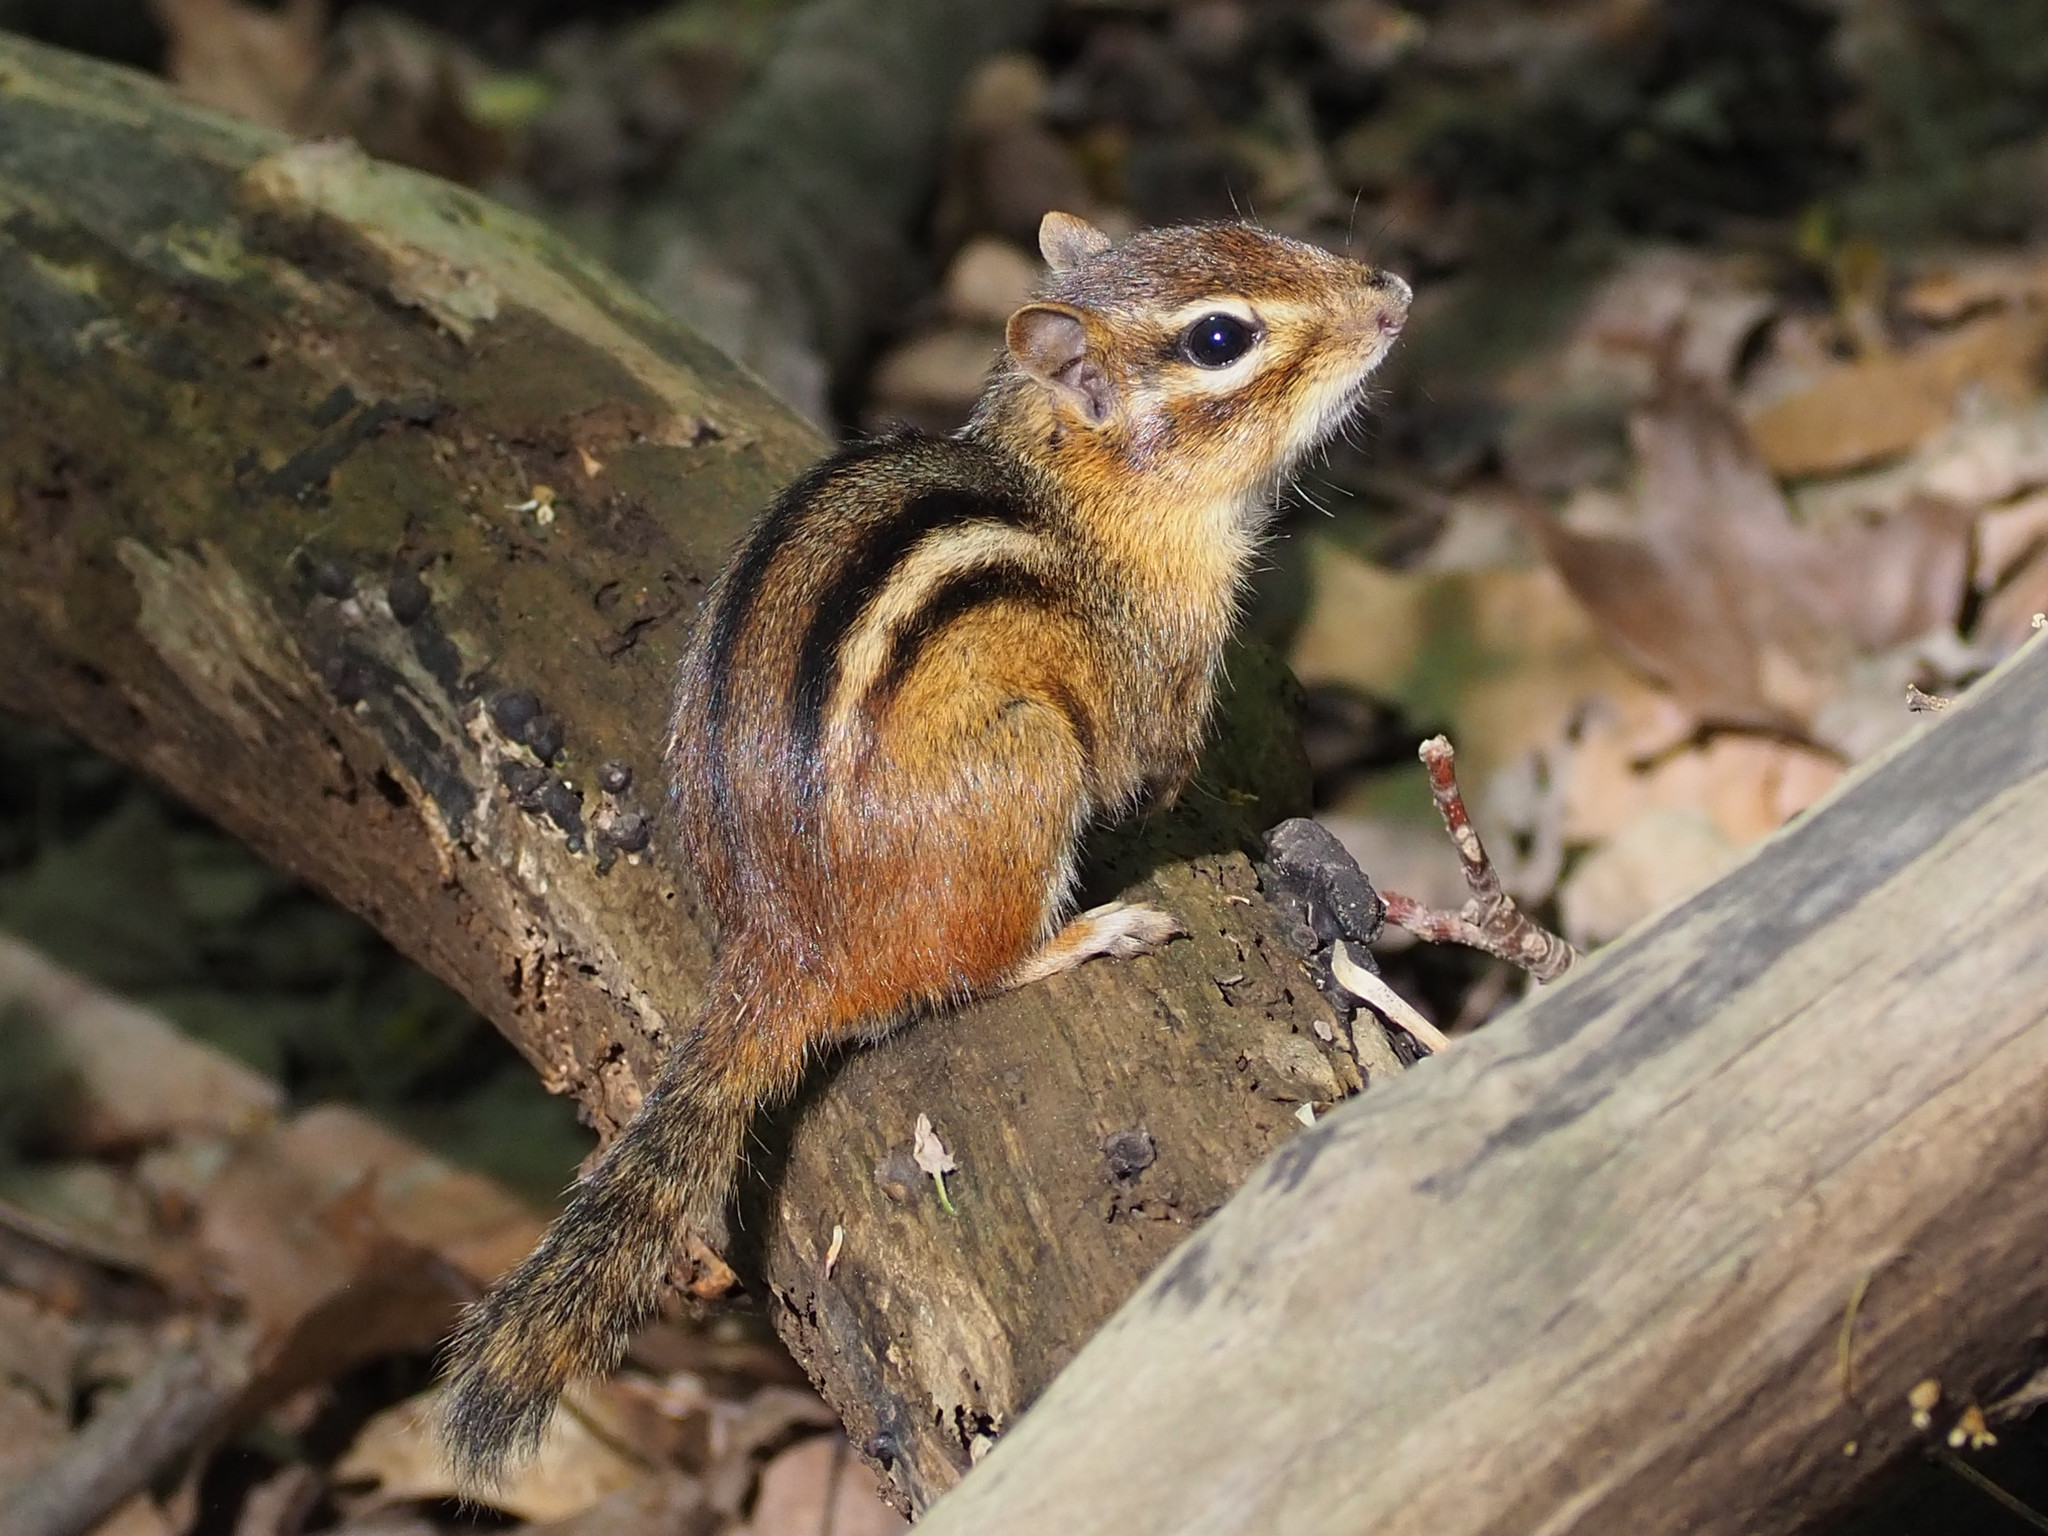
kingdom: Animalia
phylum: Chordata
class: Mammalia
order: Rodentia
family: Sciuridae
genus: Tamias
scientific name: Tamias striatus
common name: Eastern chipmunk
